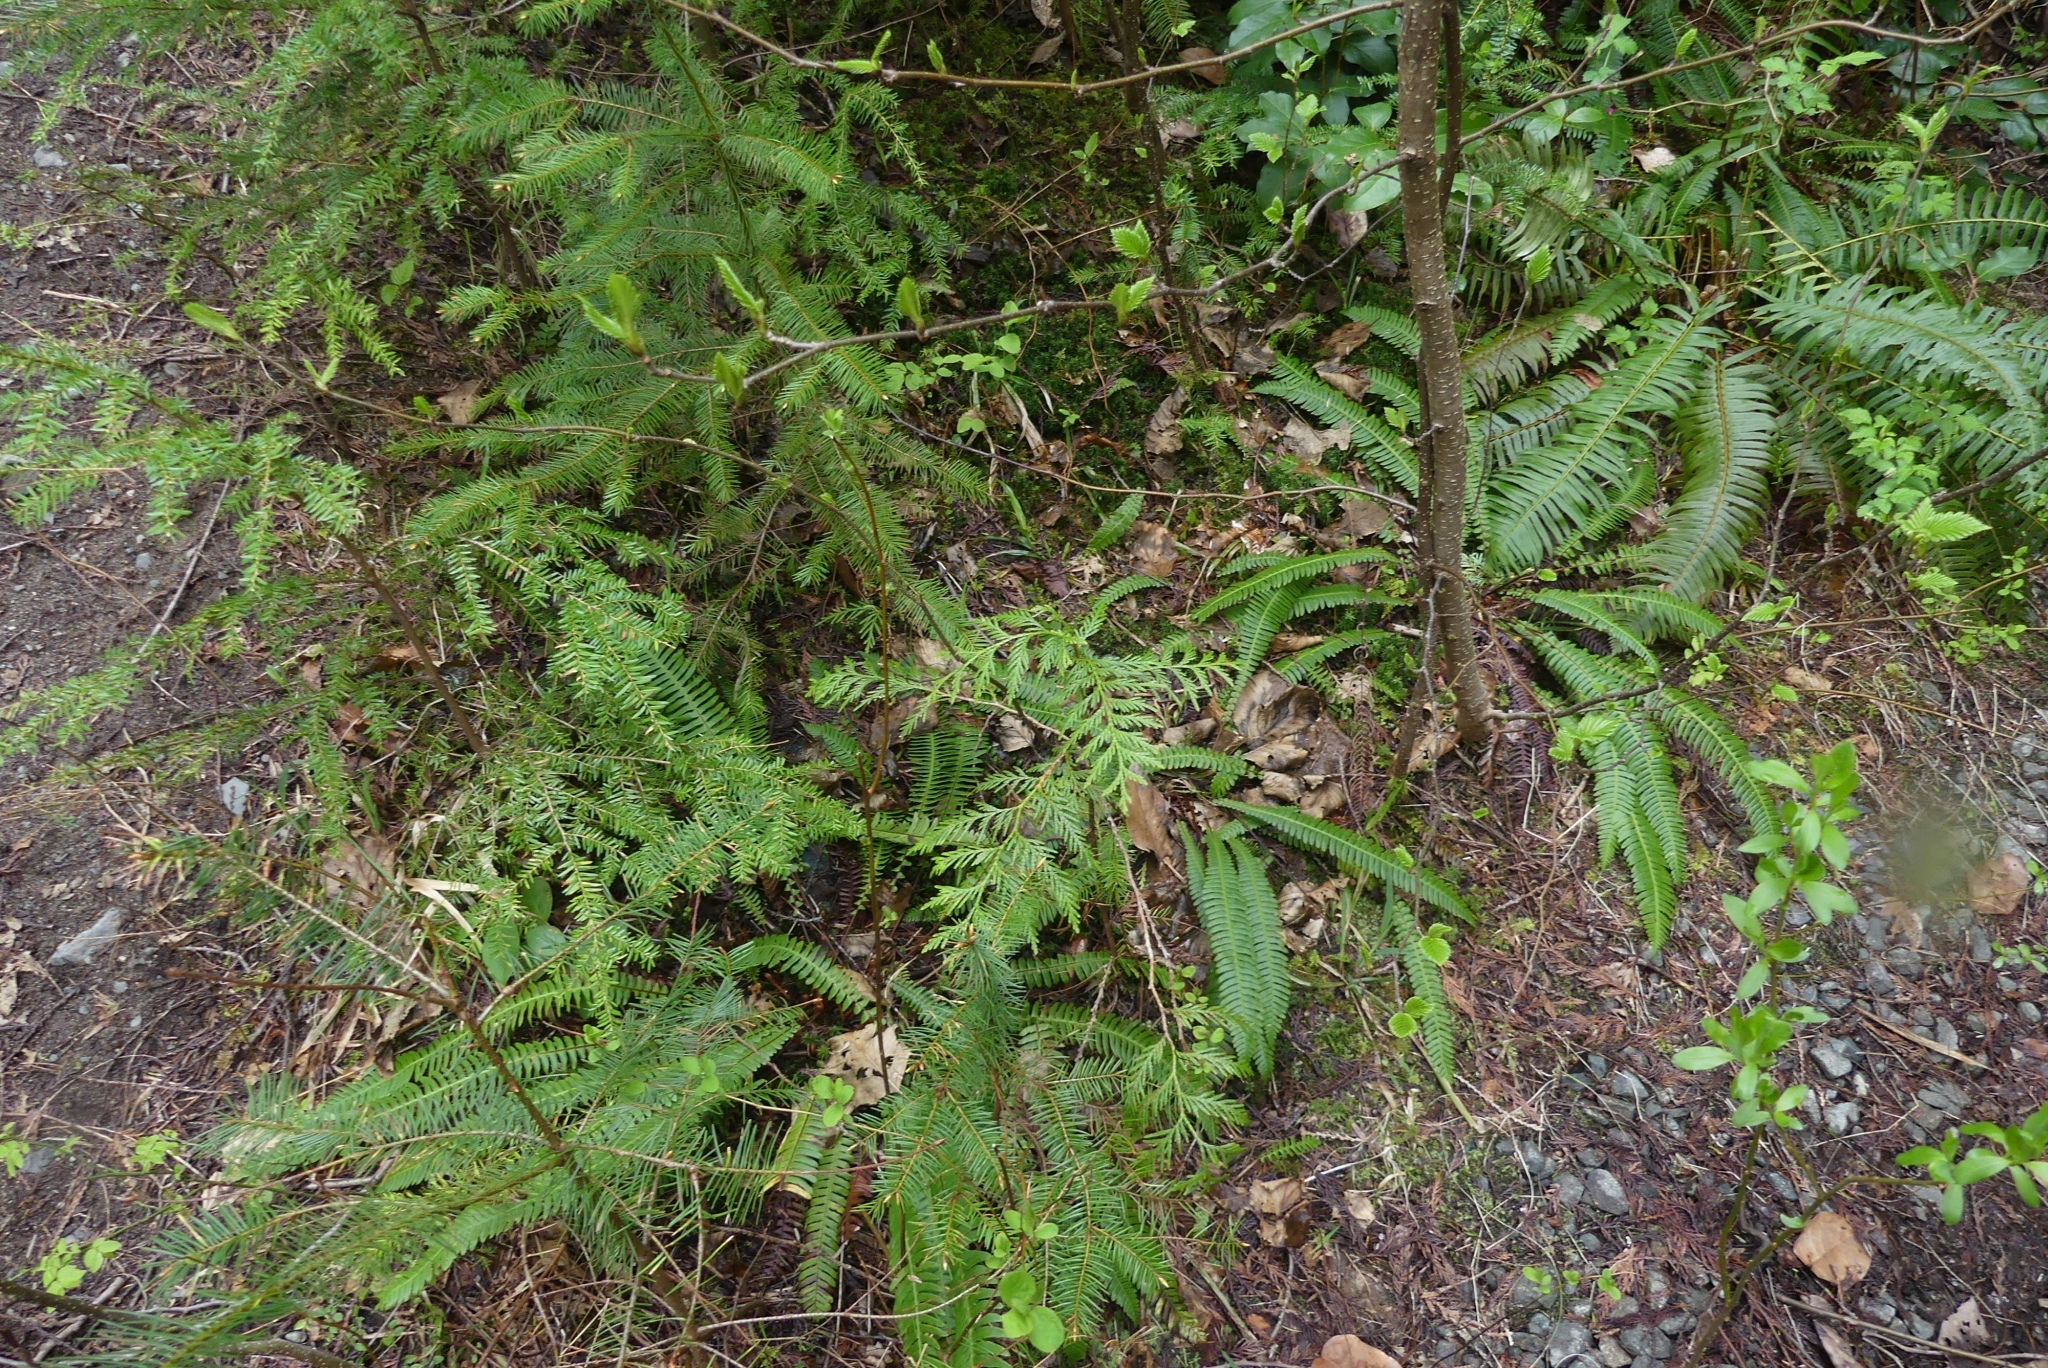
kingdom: Plantae
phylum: Tracheophyta
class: Pinopsida
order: Pinales
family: Cupressaceae
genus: Thuja
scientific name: Thuja plicata
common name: Western red-cedar
